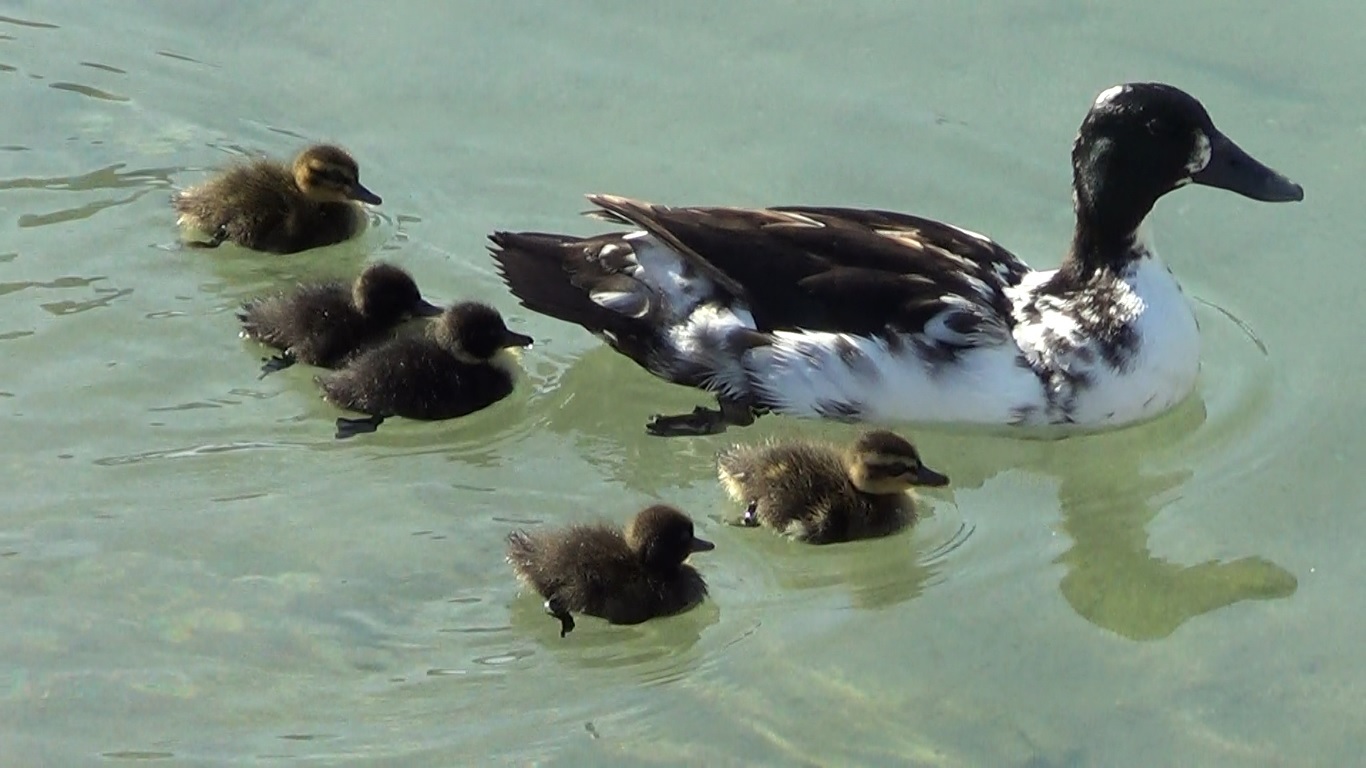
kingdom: Animalia
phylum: Chordata
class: Aves
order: Anseriformes
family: Anatidae
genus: Anas
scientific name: Anas platyrhynchos
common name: Mallard
